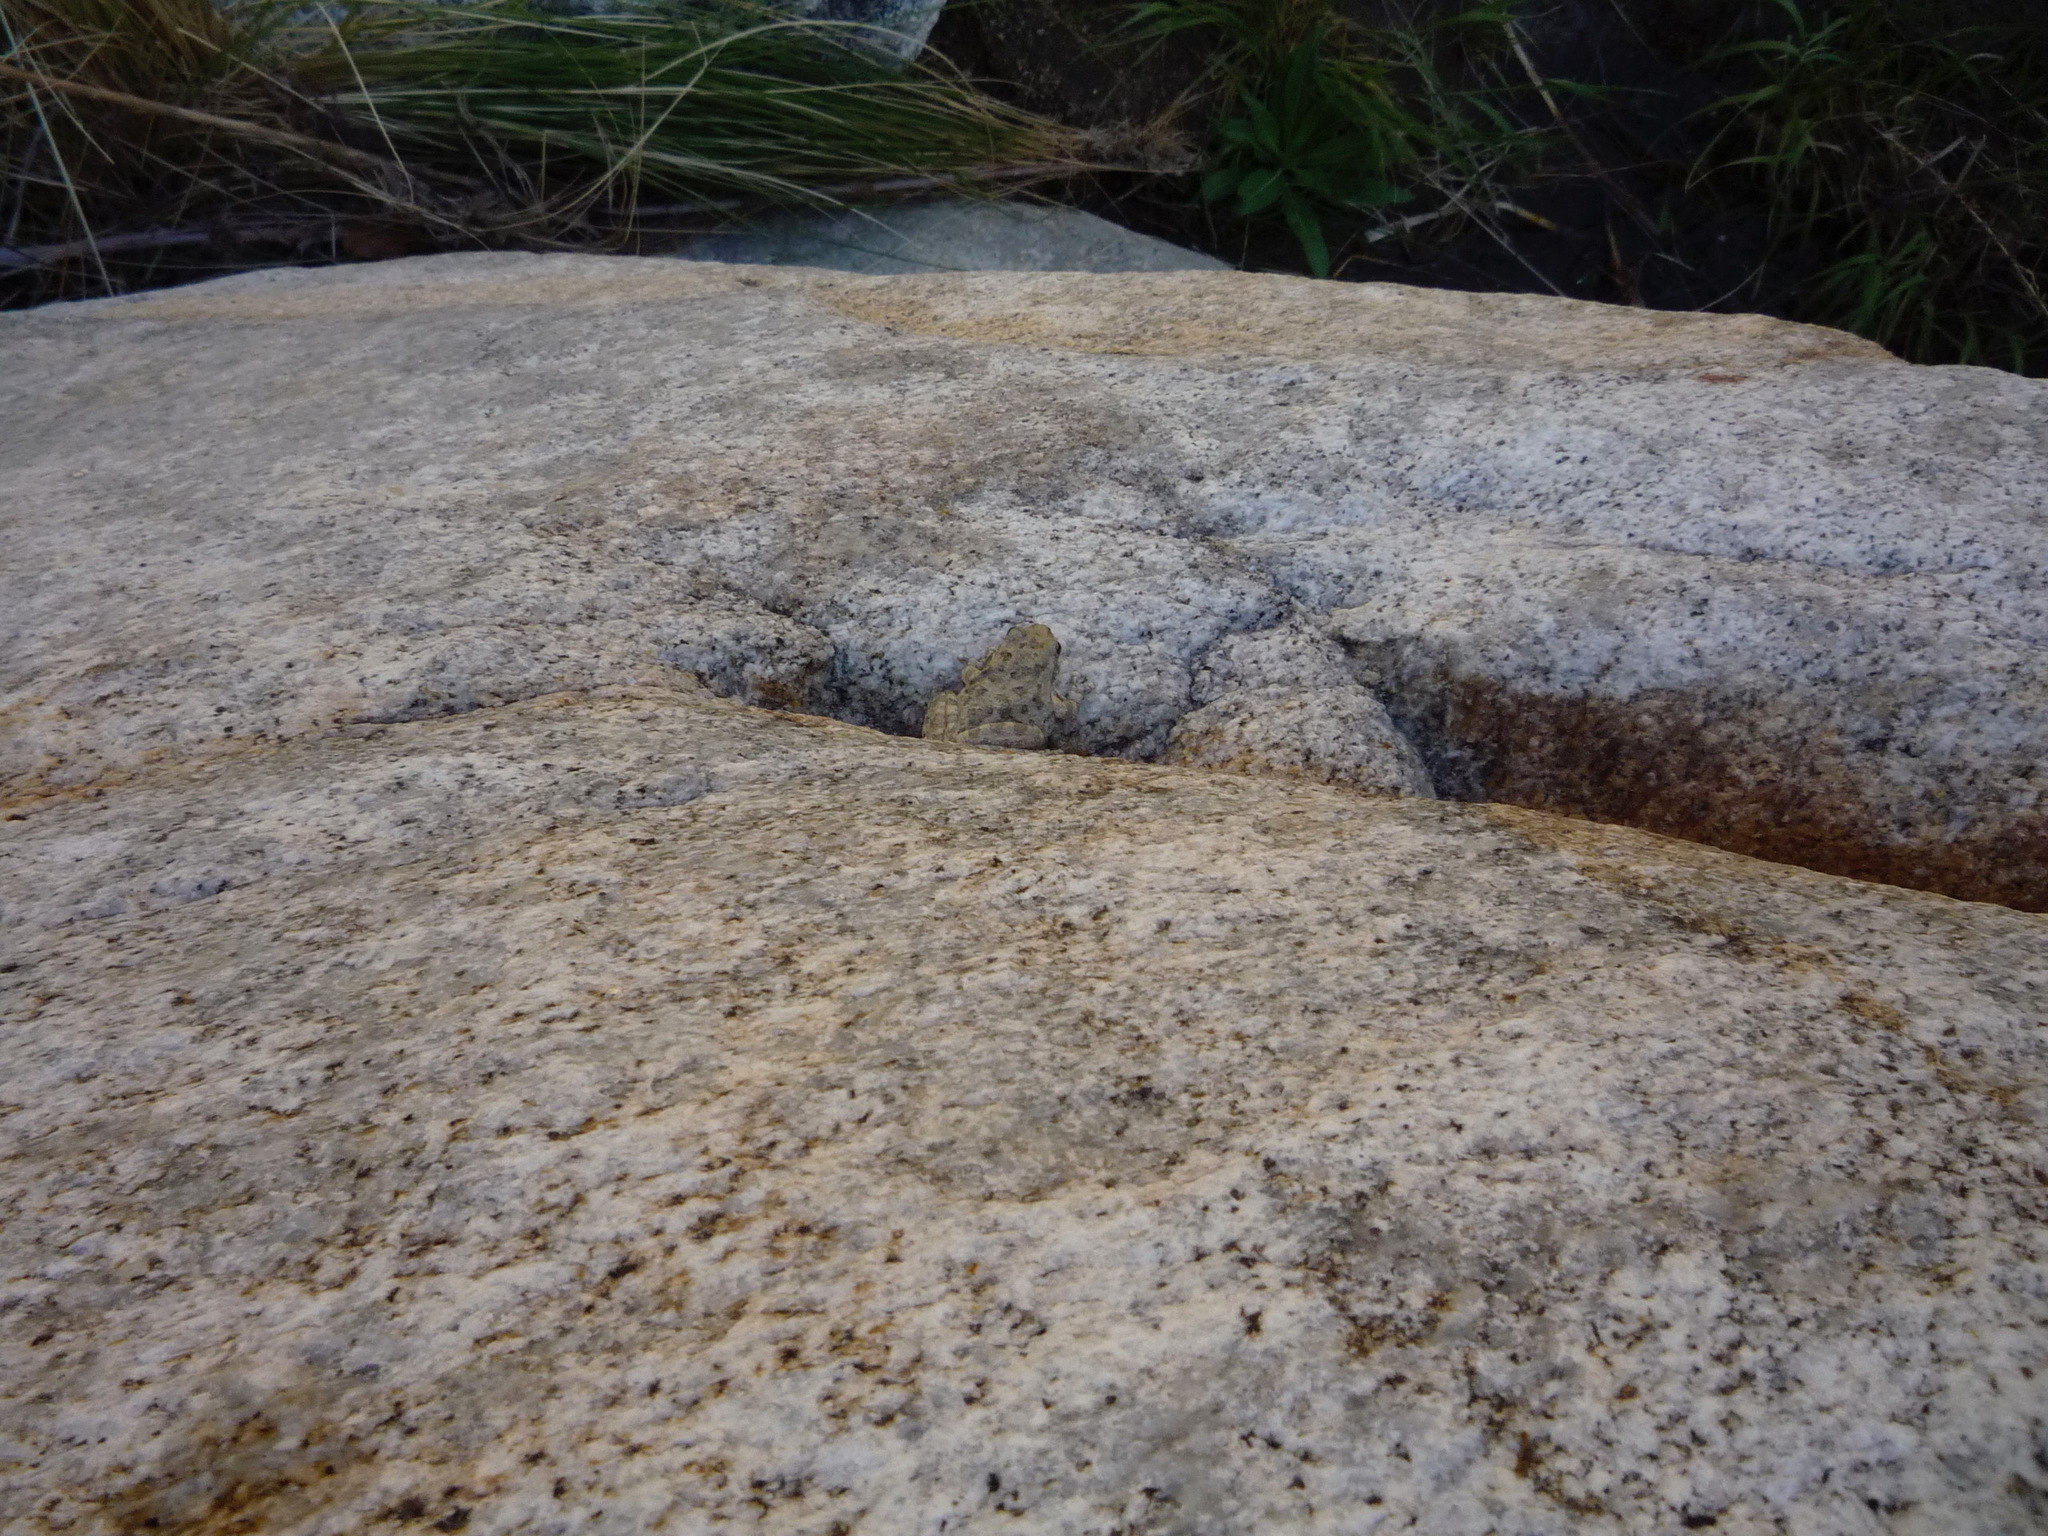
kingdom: Animalia
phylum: Chordata
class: Amphibia
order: Anura
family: Hylidae
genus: Pseudacris
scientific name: Pseudacris cadaverina
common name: California chorus frog
